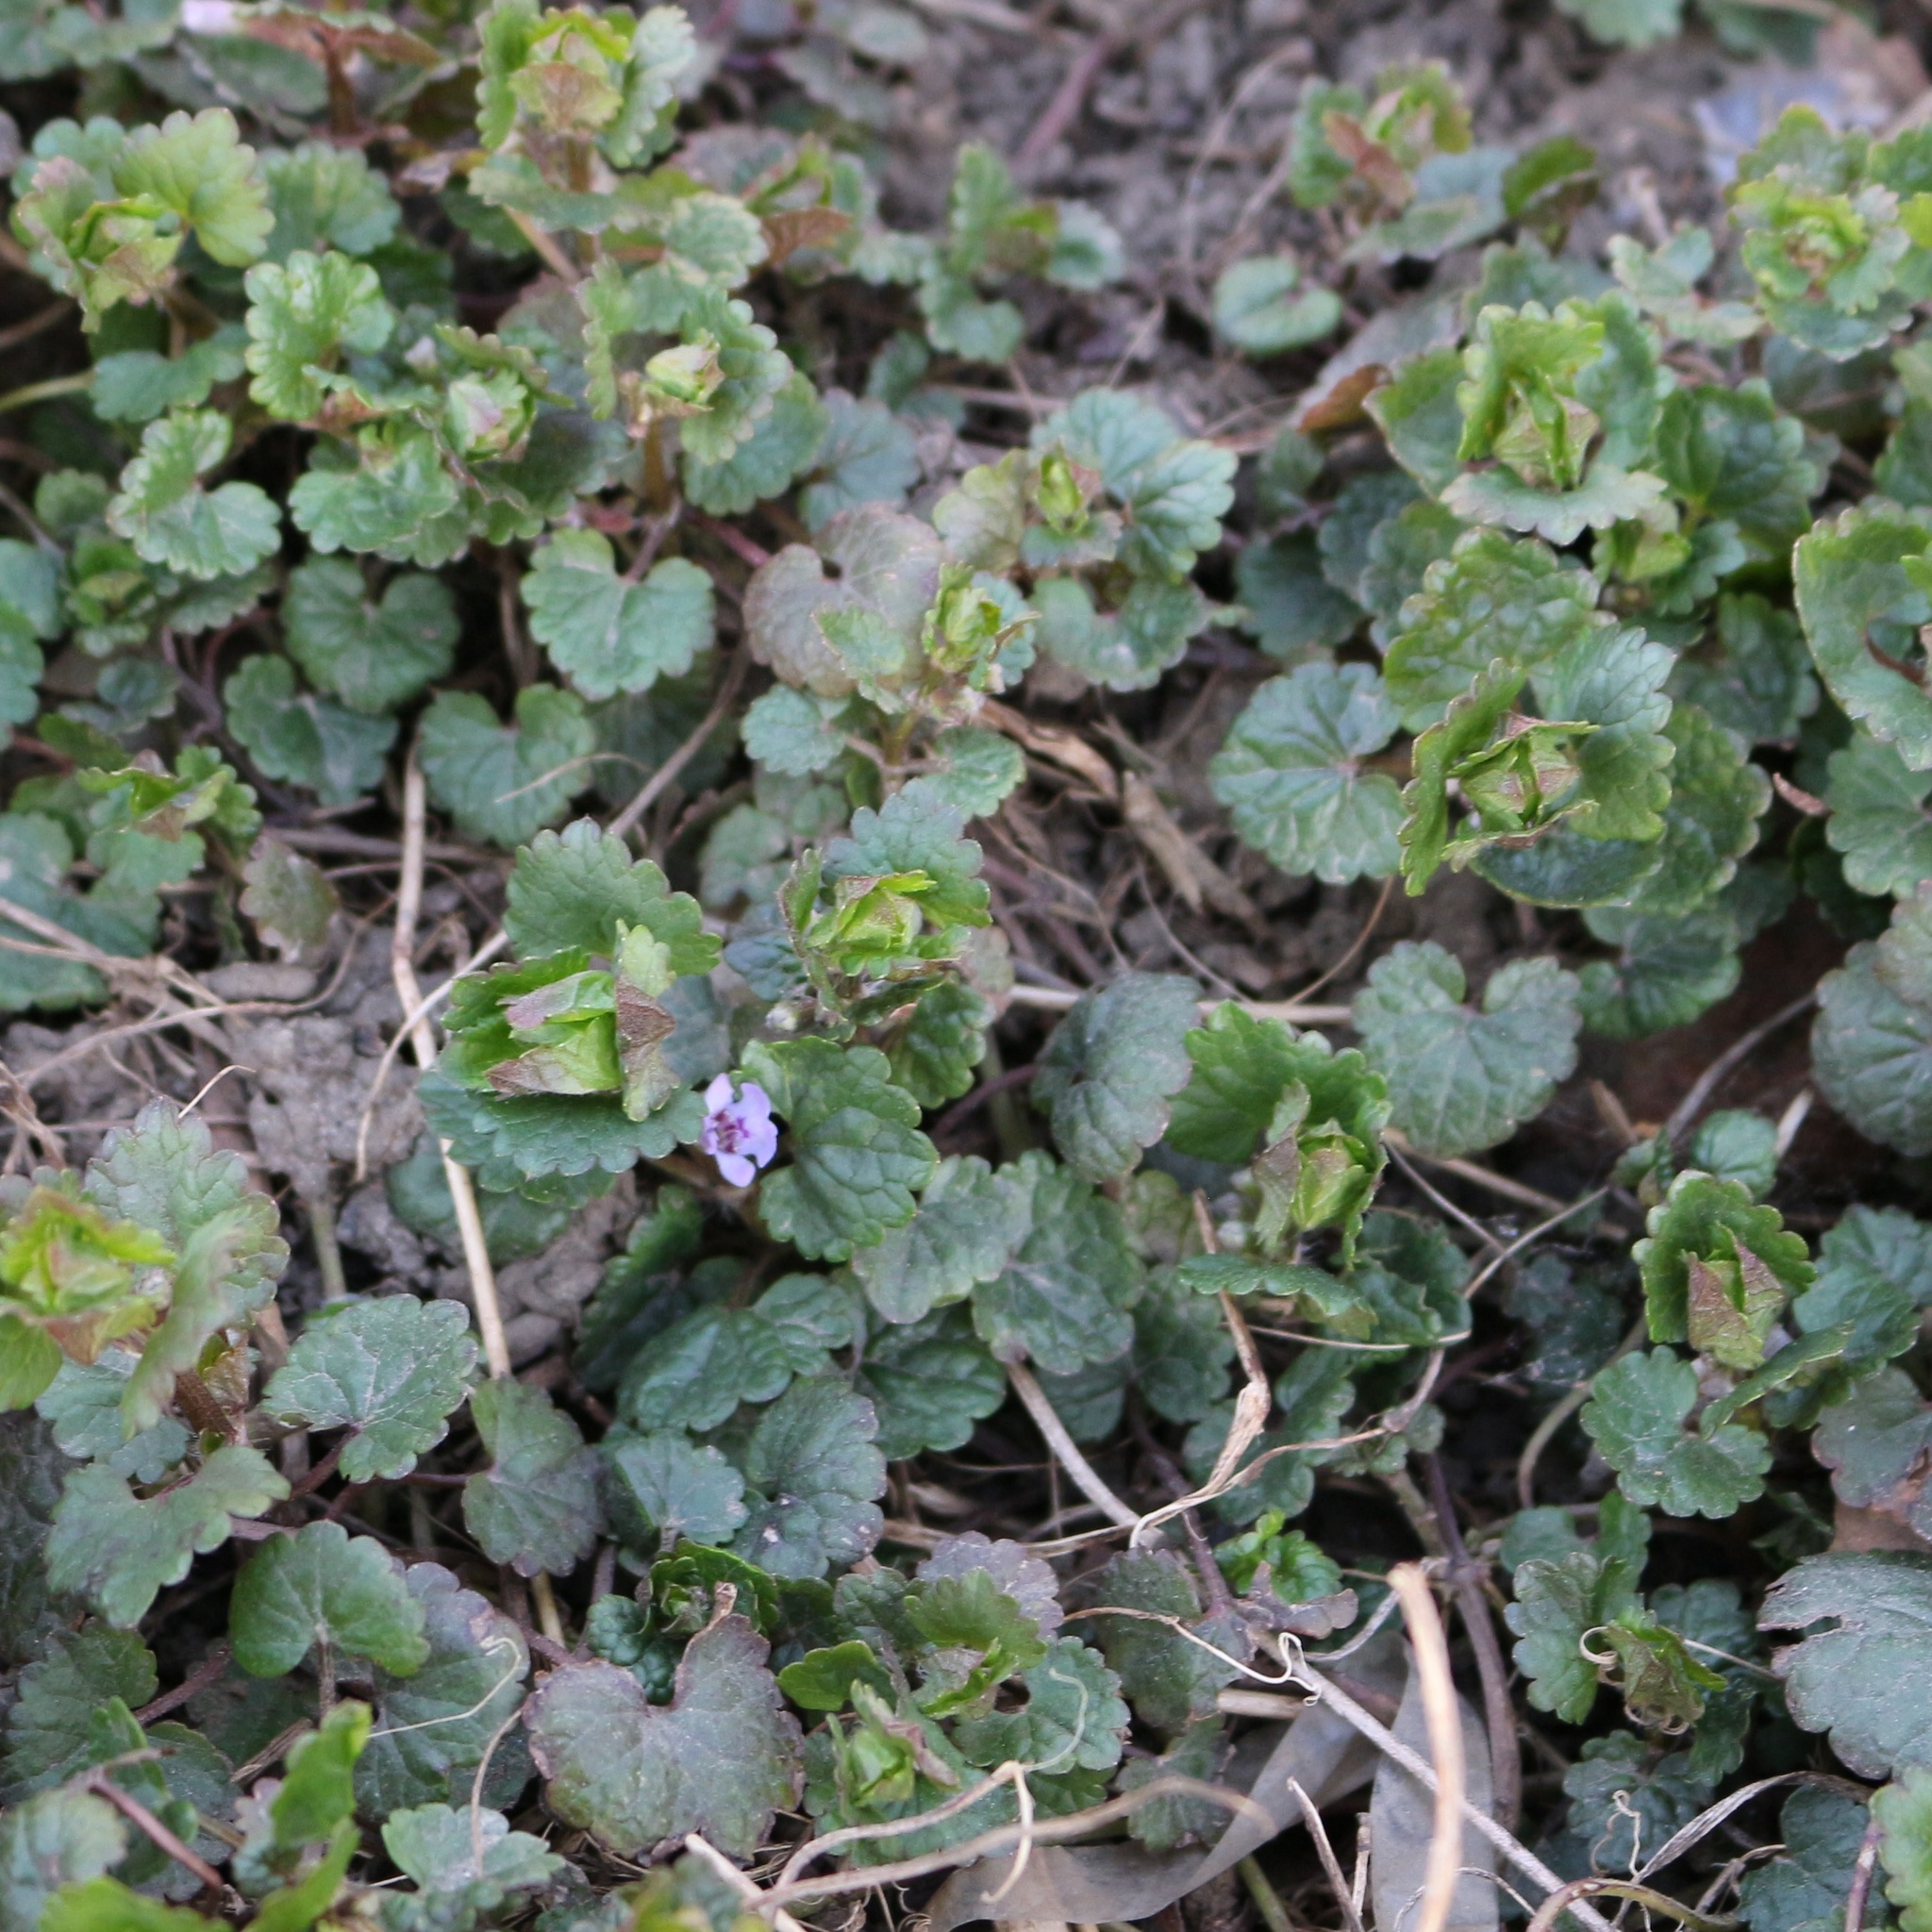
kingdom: Plantae
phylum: Tracheophyta
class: Magnoliopsida
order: Lamiales
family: Lamiaceae
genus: Glechoma
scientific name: Glechoma hederacea
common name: Ground ivy
